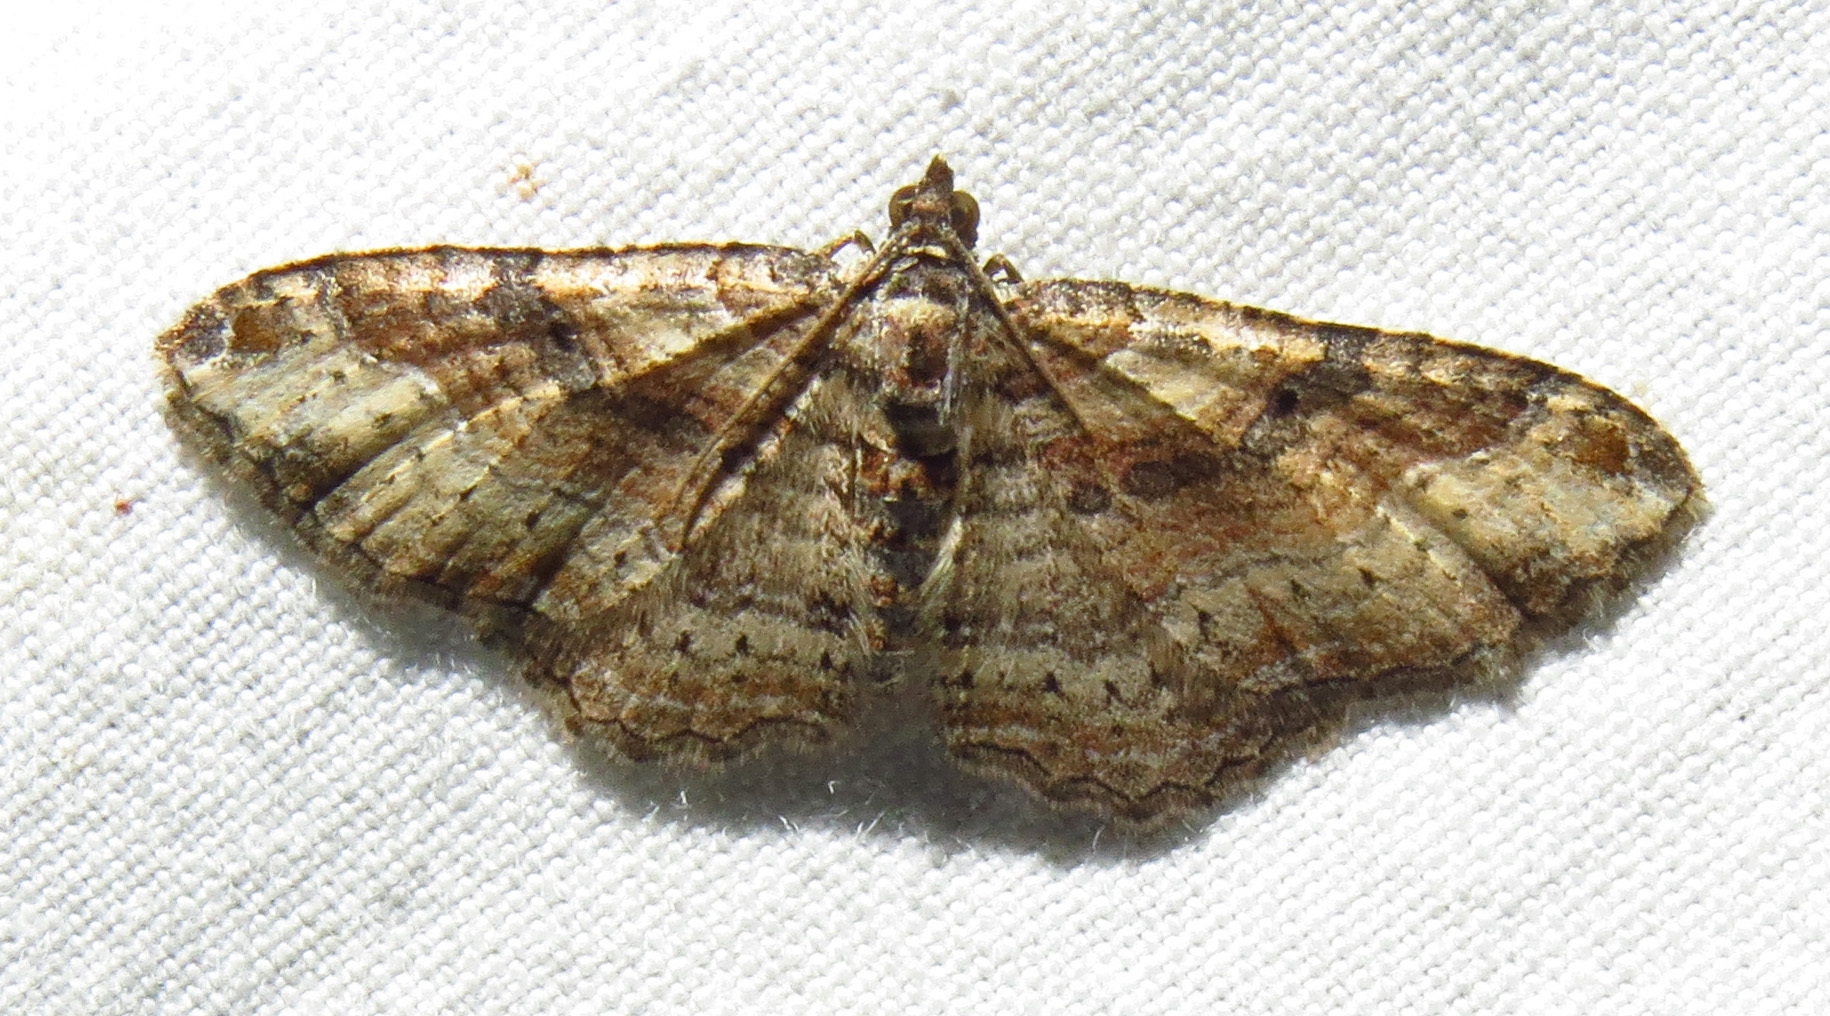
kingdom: Animalia
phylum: Arthropoda
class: Insecta
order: Lepidoptera
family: Geometridae
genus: Costaconvexa
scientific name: Costaconvexa centrostrigaria
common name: Bent-line carpet
